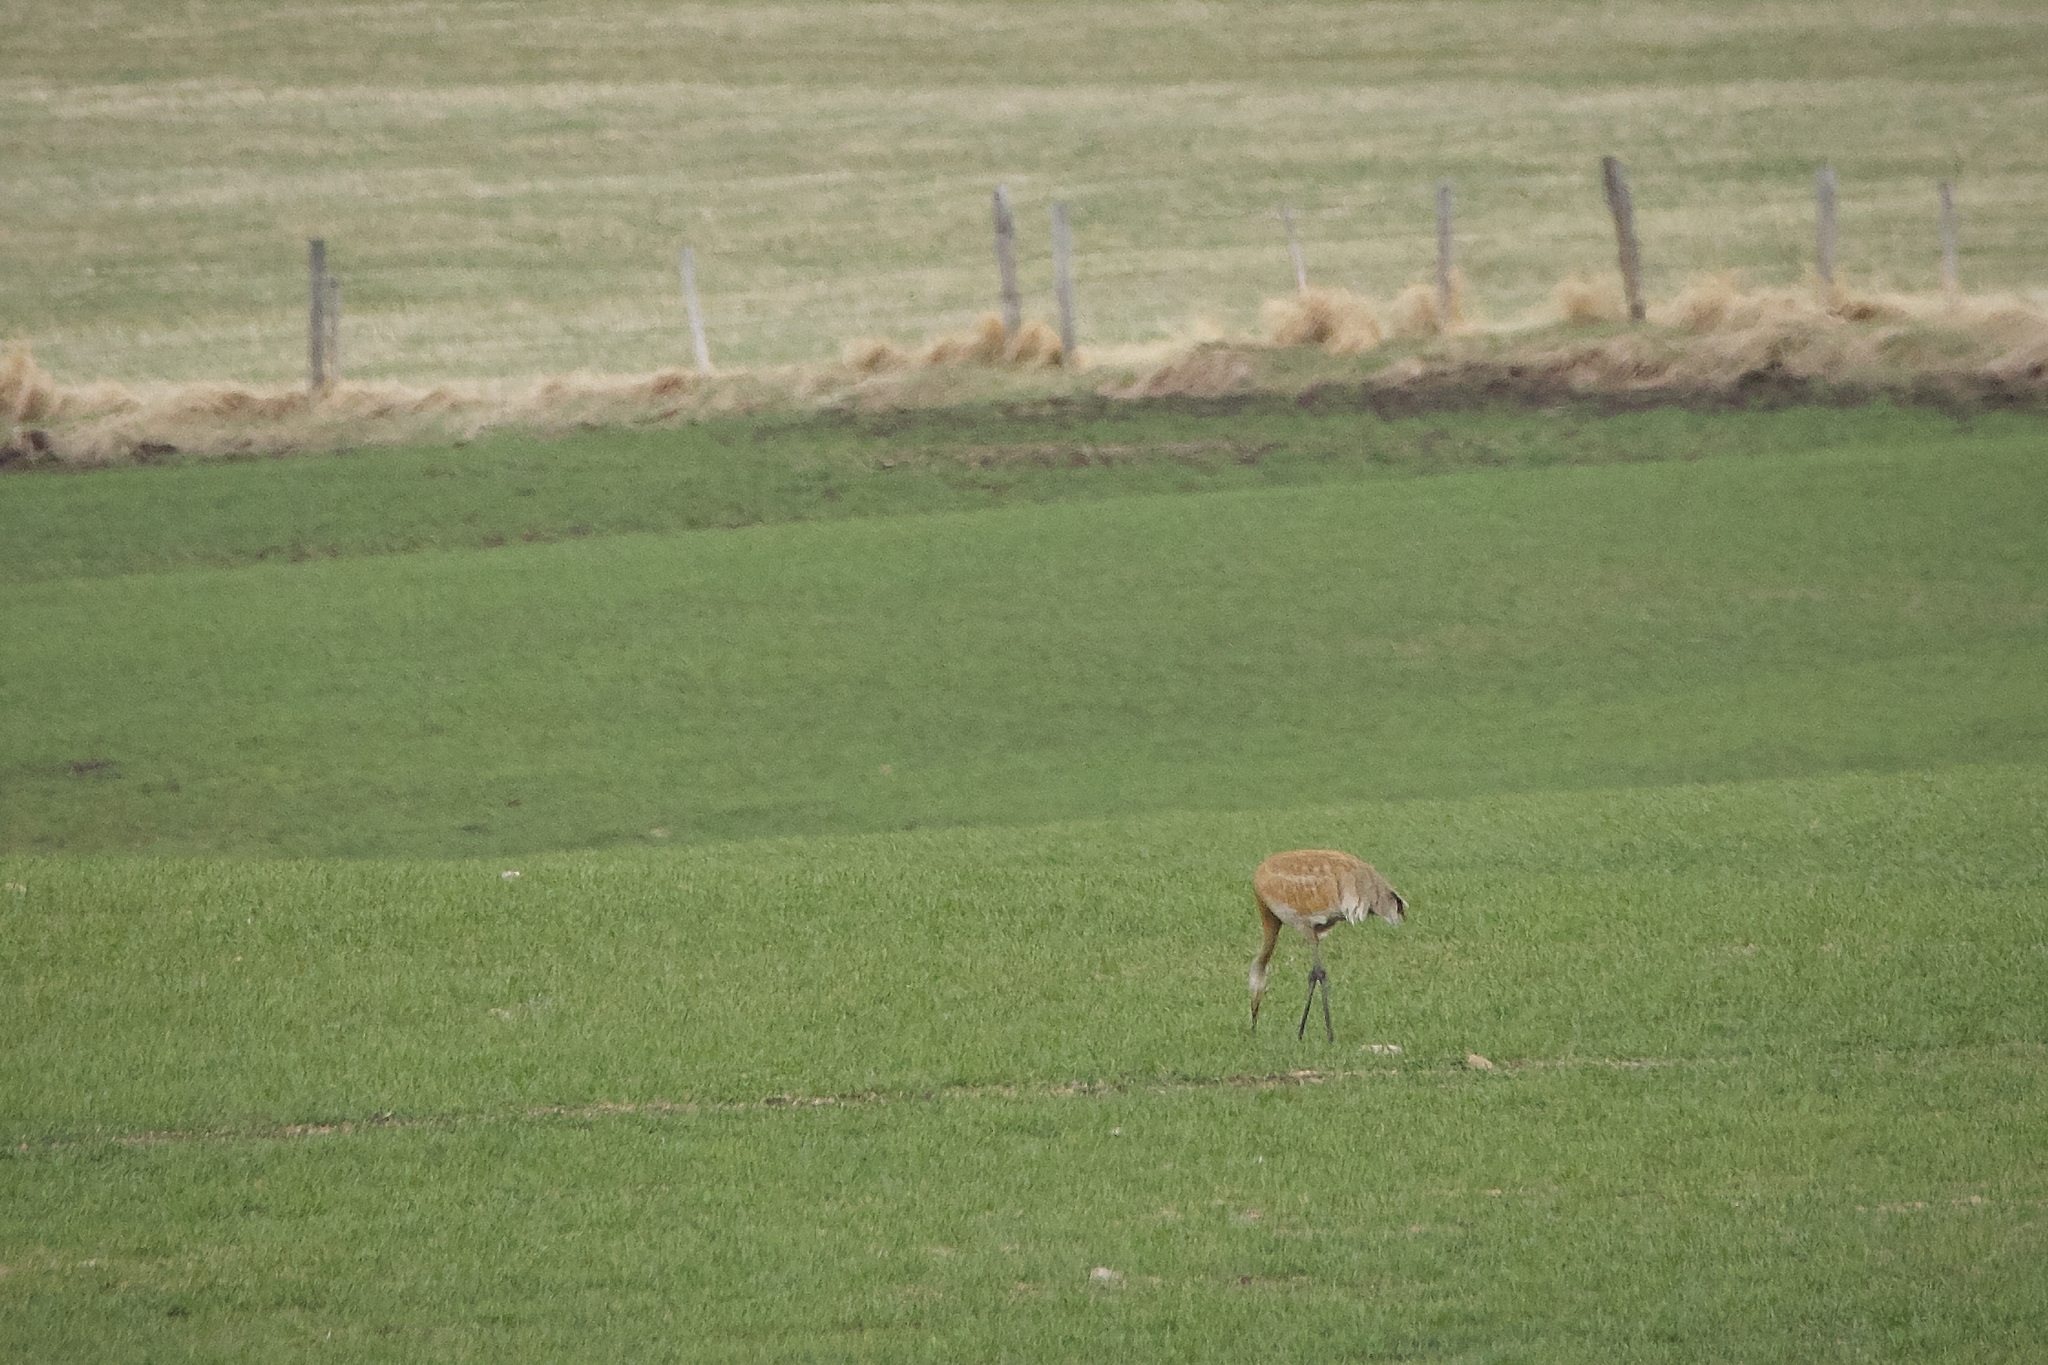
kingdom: Animalia
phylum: Chordata
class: Aves
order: Gruiformes
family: Gruidae
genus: Grus
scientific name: Grus canadensis
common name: Sandhill crane
